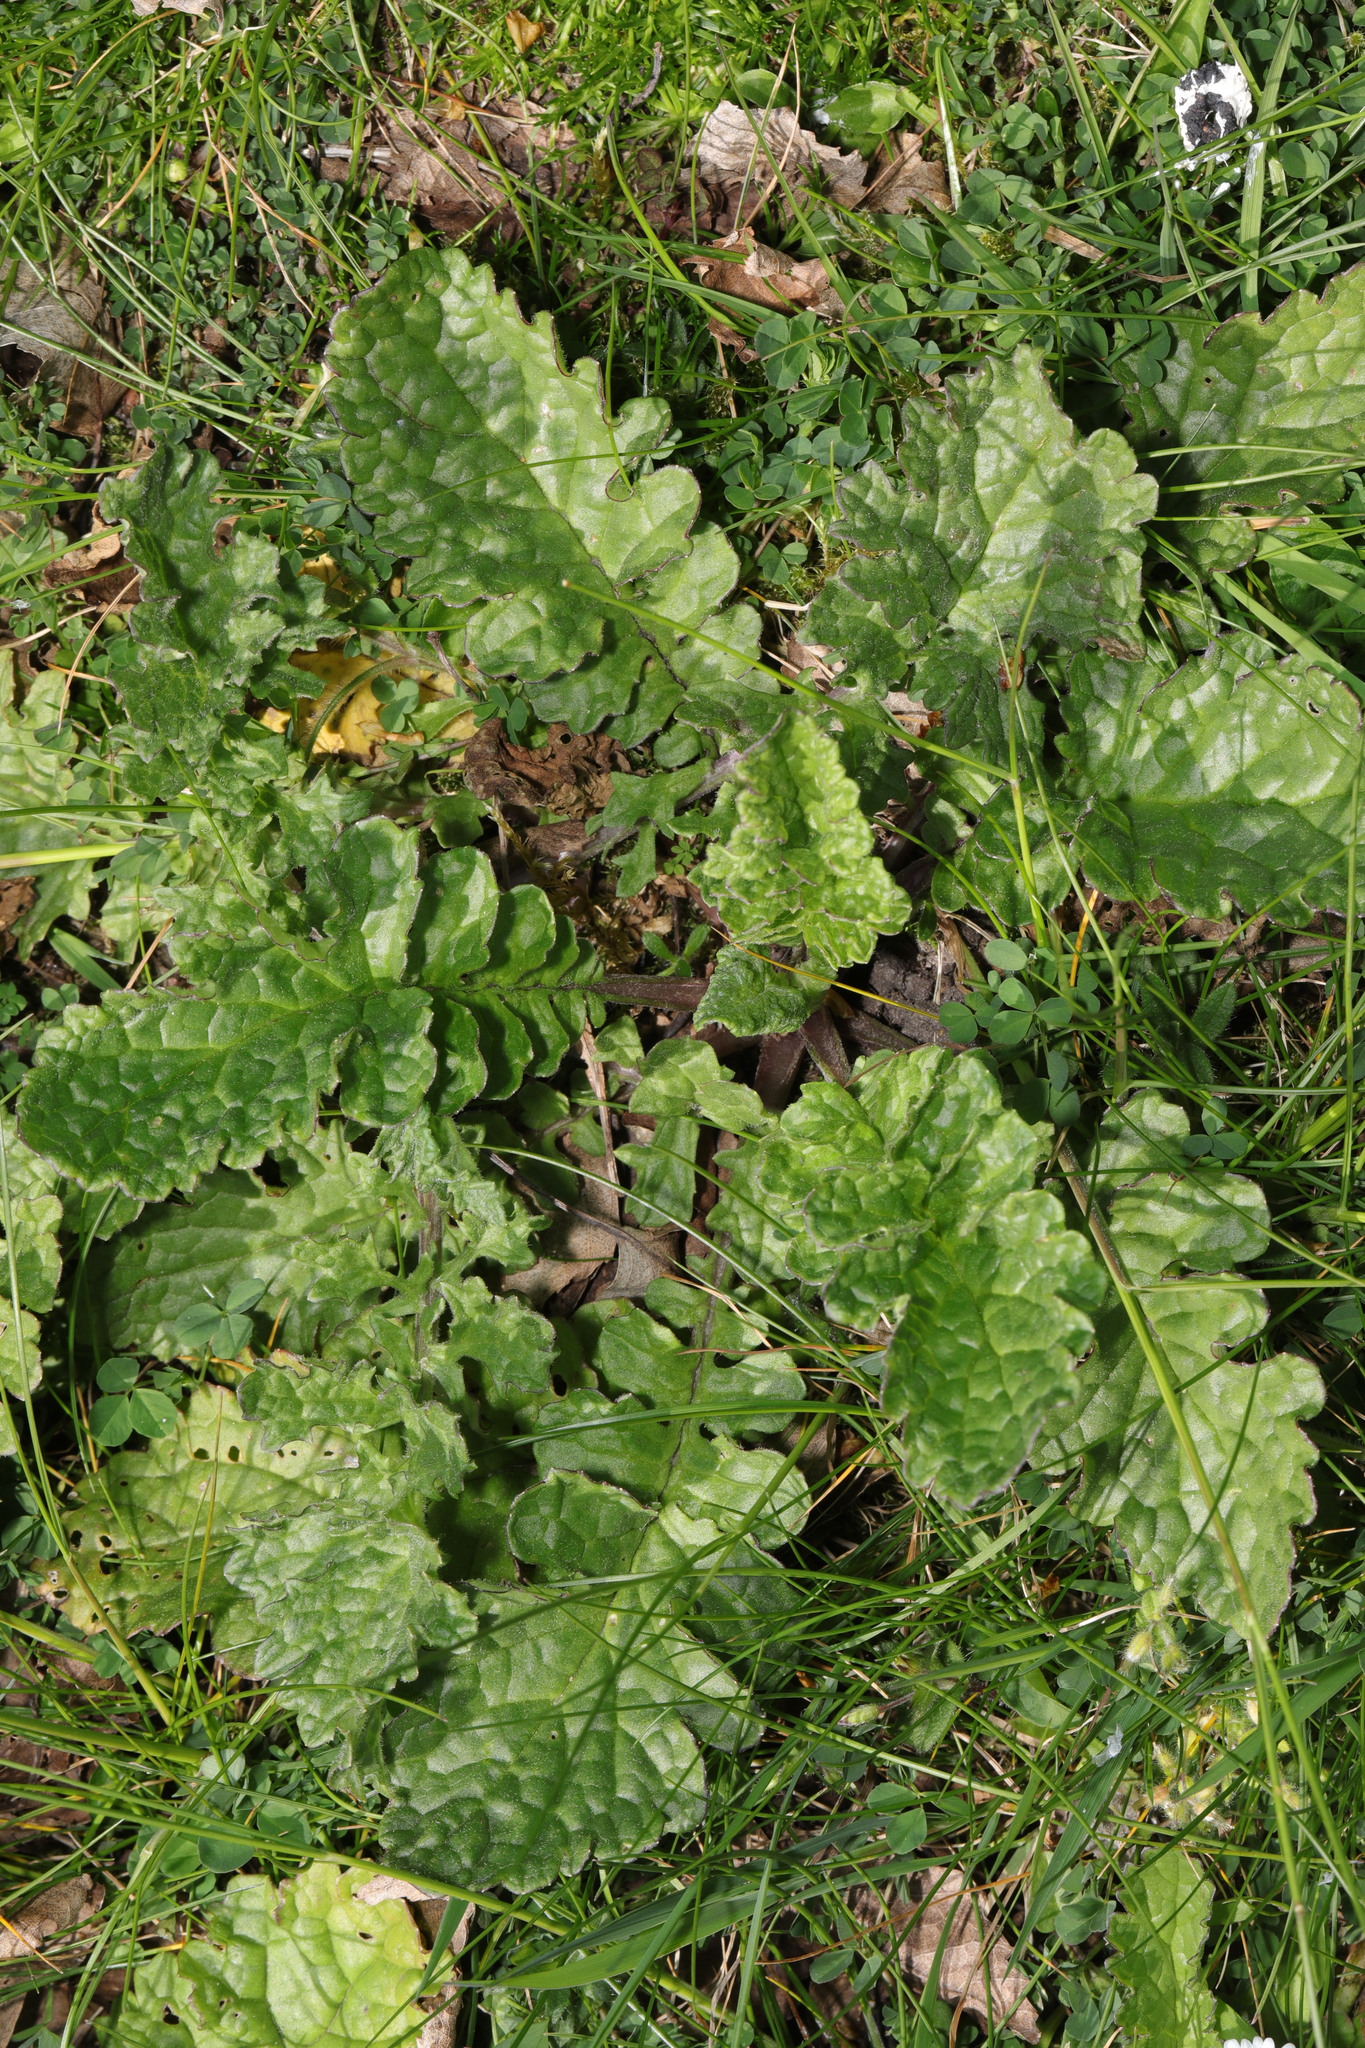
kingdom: Plantae
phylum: Tracheophyta
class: Magnoliopsida
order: Asterales
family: Asteraceae
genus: Jacobaea
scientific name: Jacobaea vulgaris
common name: Stinking willie
